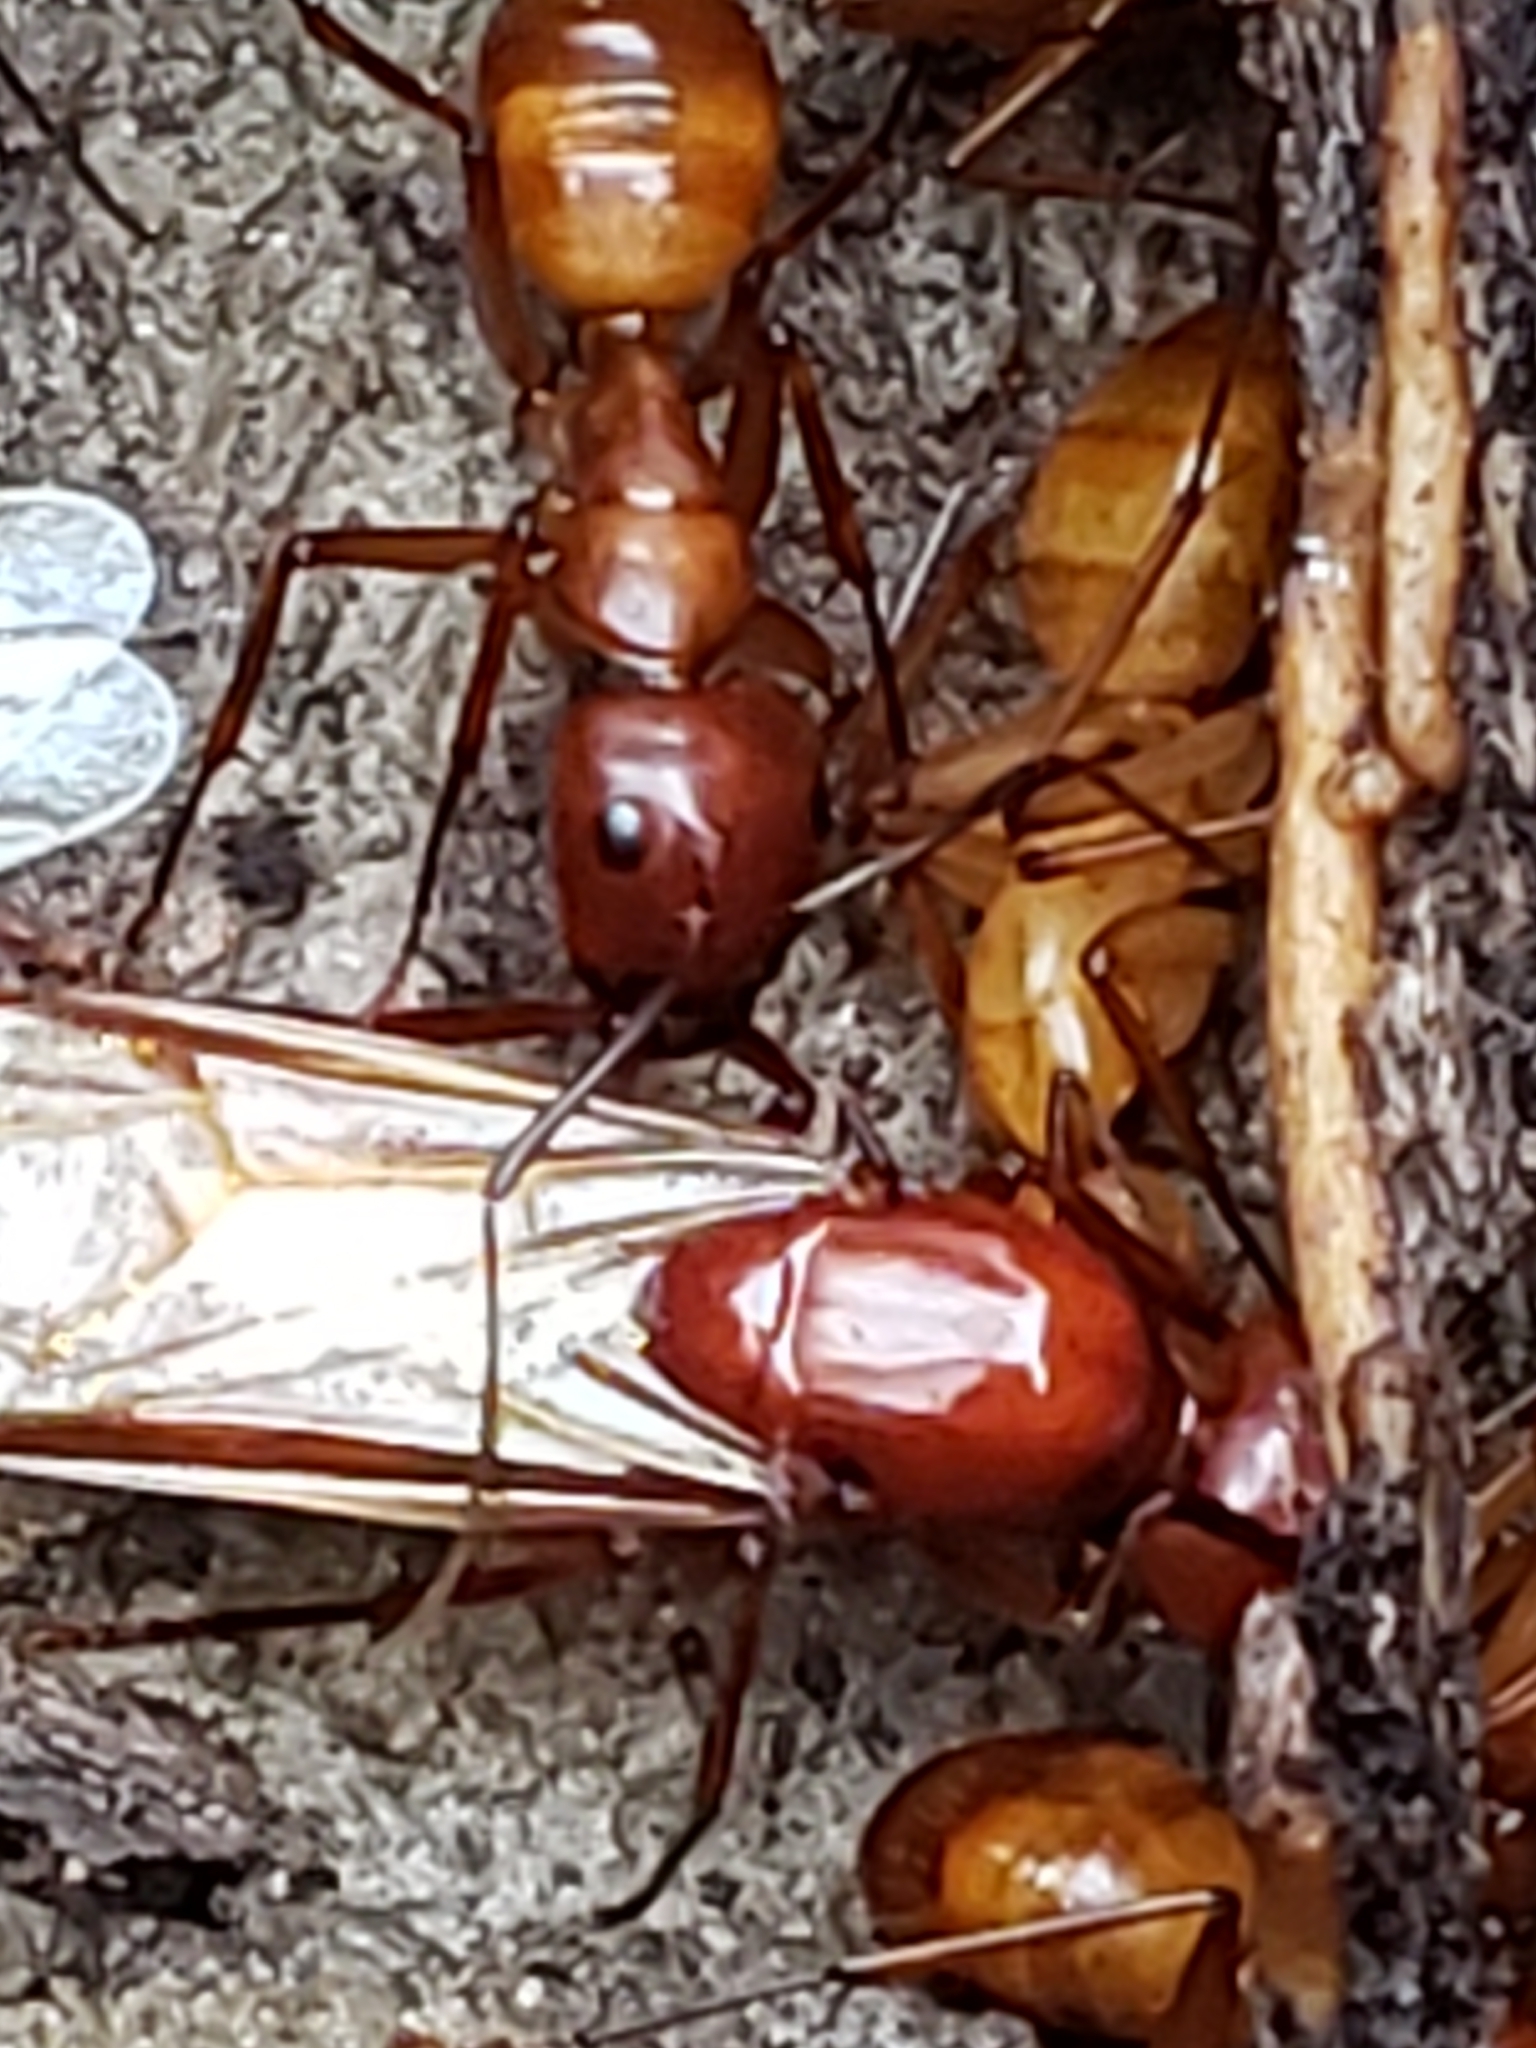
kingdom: Animalia
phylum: Arthropoda
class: Insecta
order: Hymenoptera
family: Formicidae
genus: Camponotus
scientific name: Camponotus castaneus
